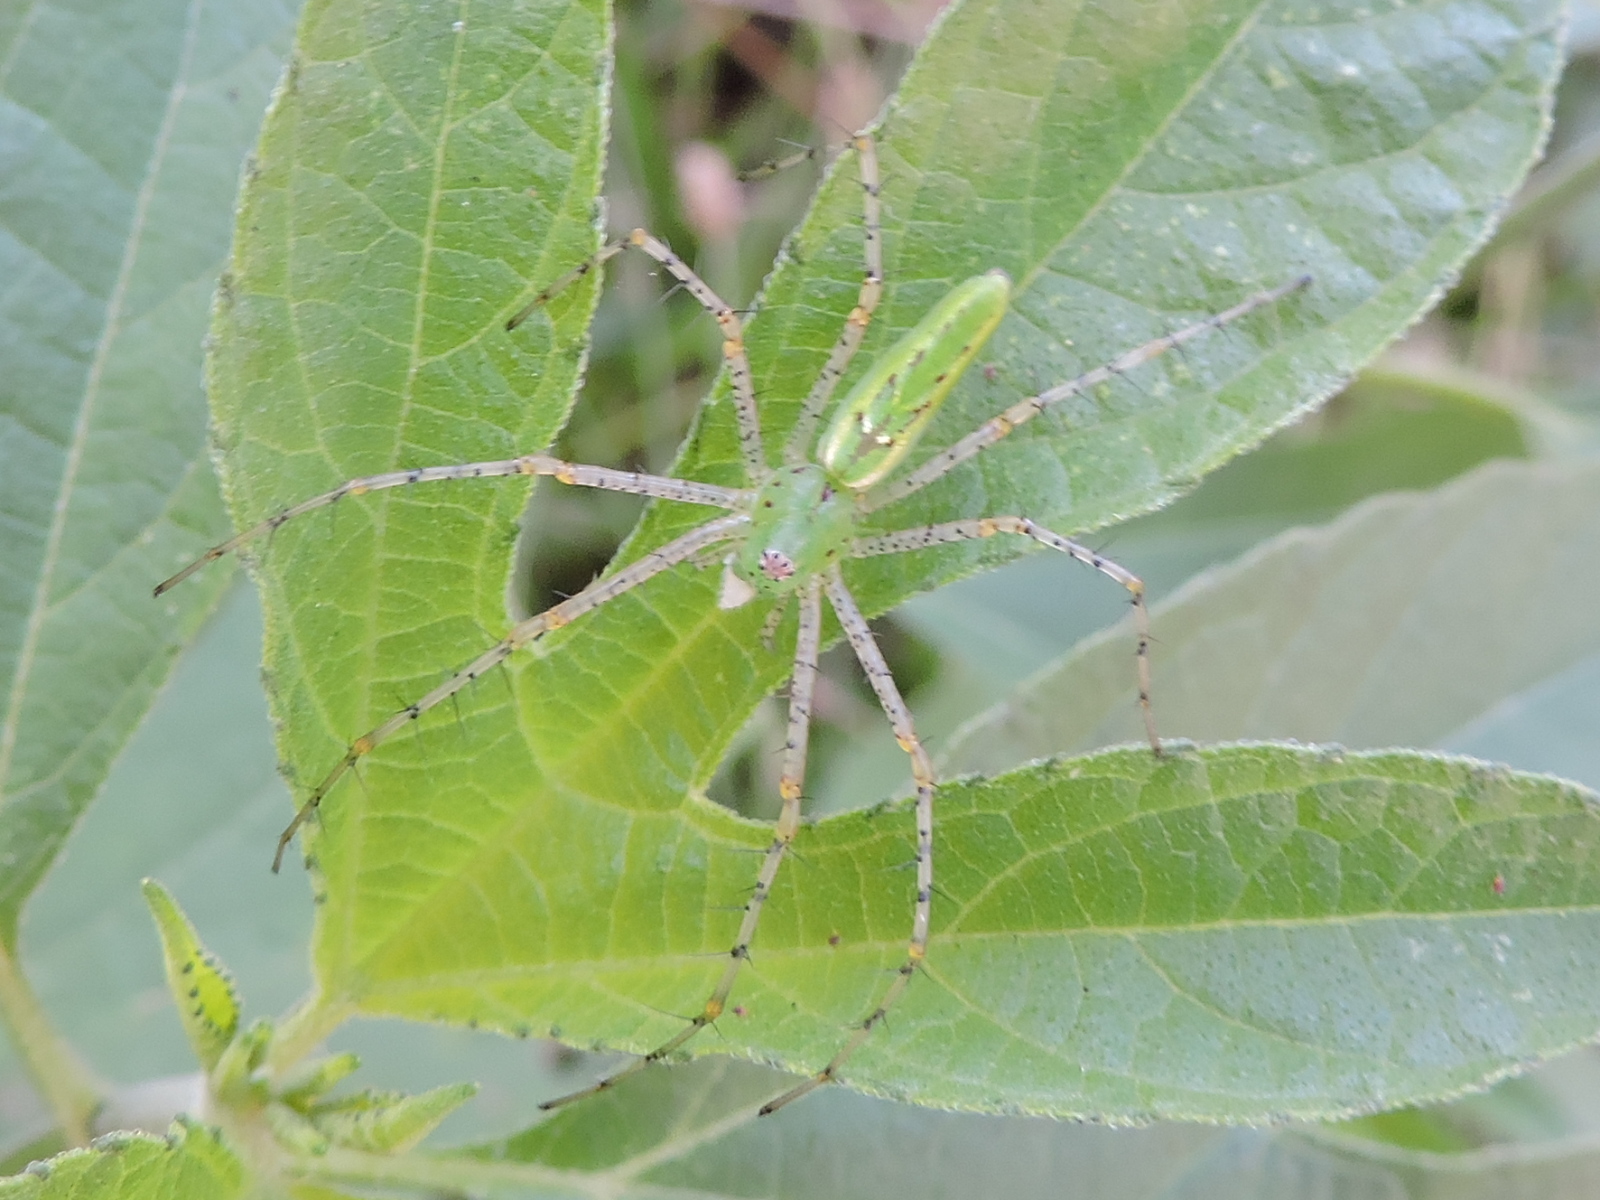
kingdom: Animalia
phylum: Arthropoda
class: Arachnida
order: Araneae
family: Oxyopidae
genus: Peucetia
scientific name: Peucetia viridans
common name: Lynx spiders
